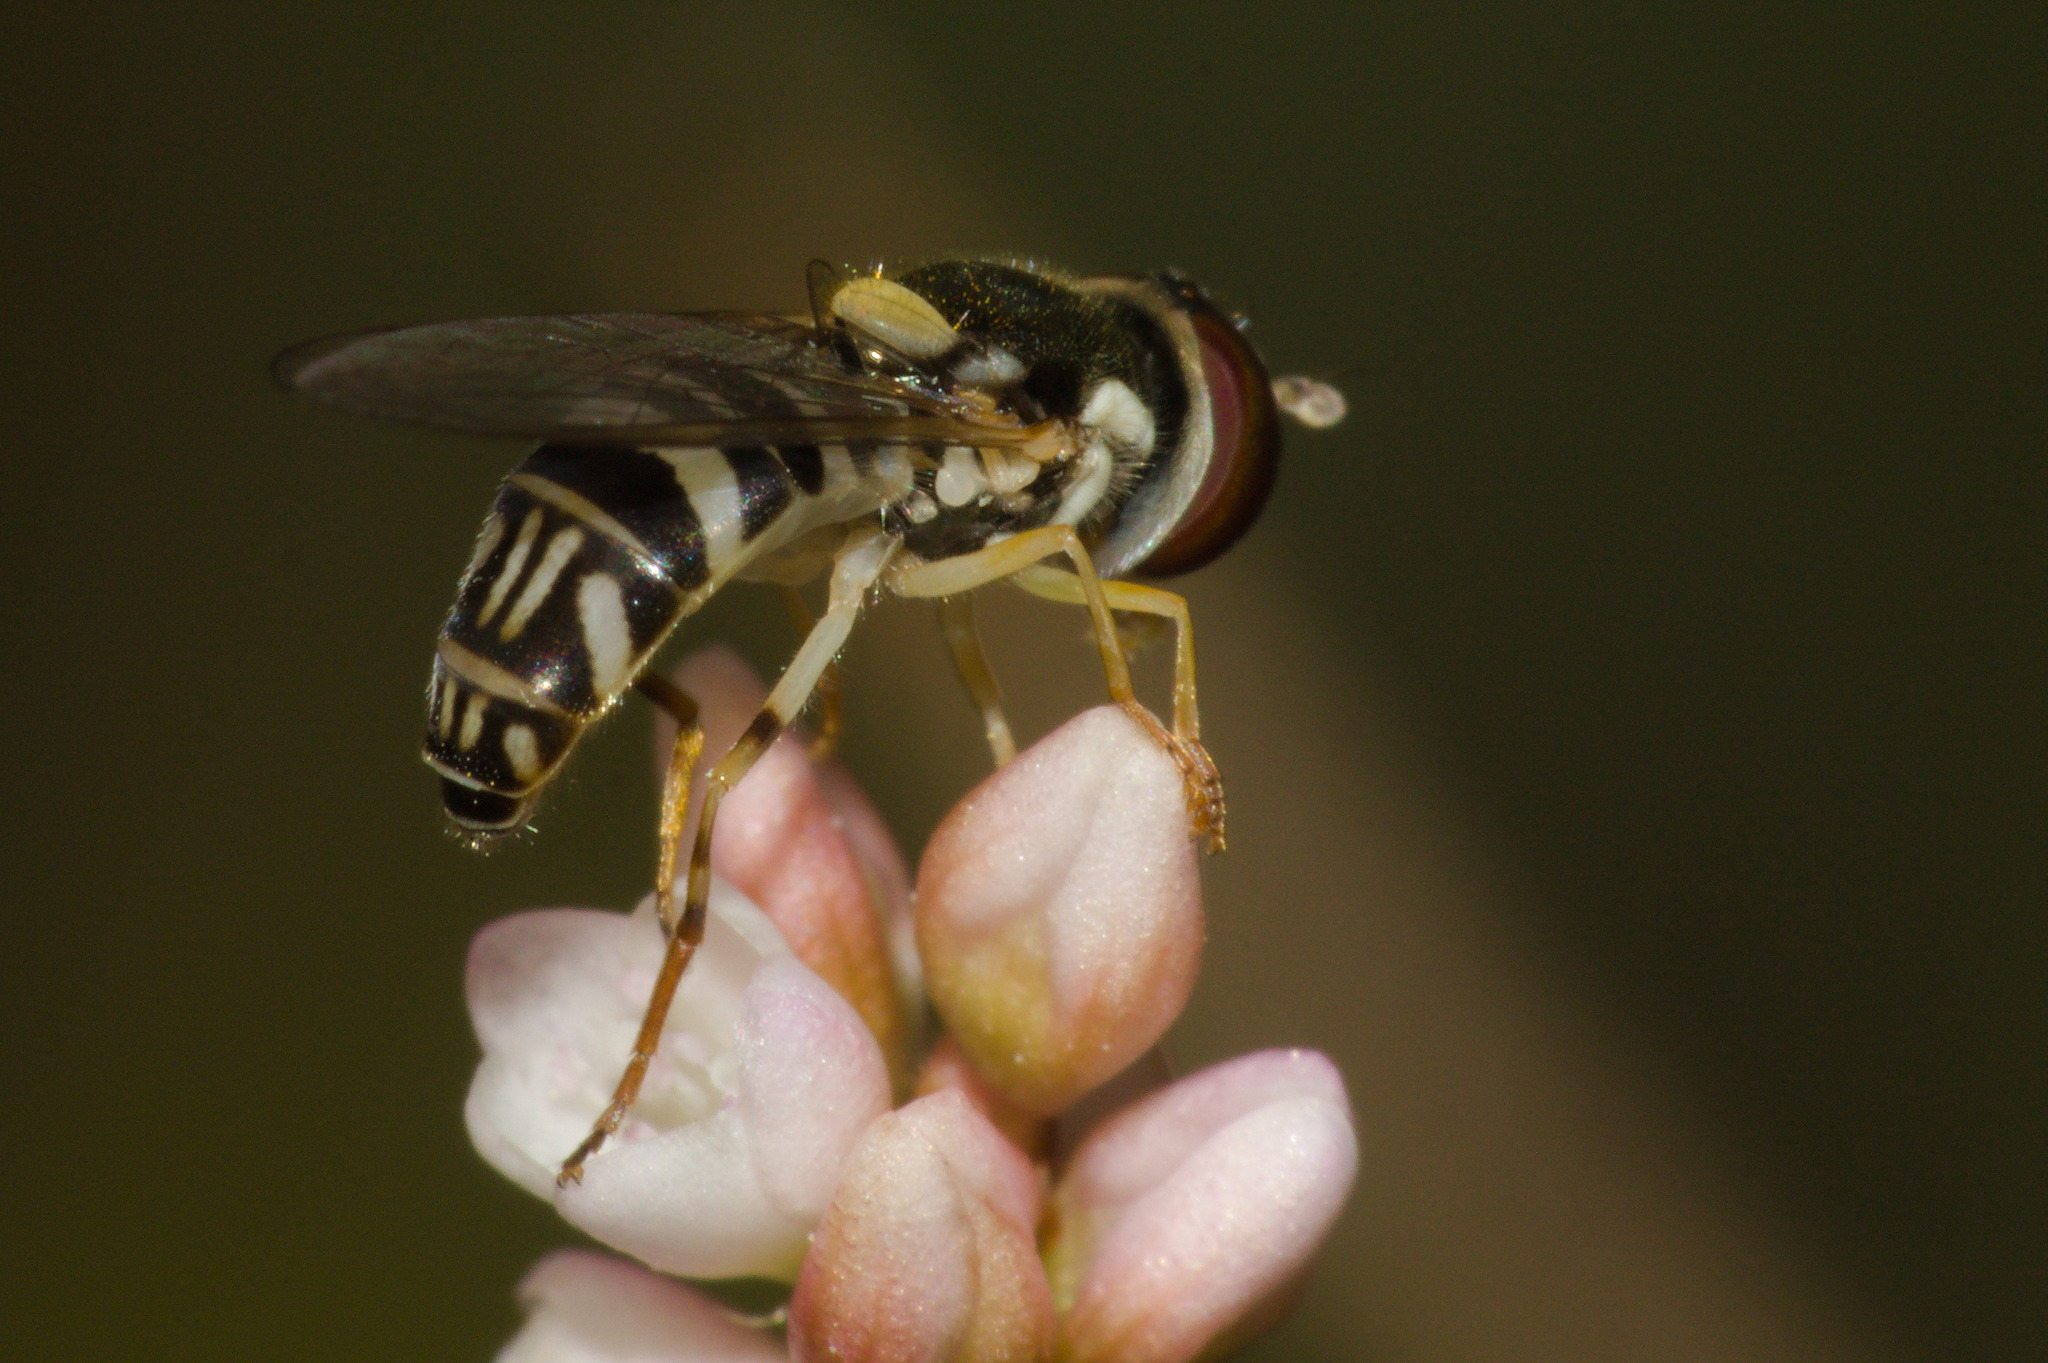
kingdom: Animalia
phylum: Arthropoda
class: Insecta
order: Diptera
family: Syrphidae
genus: Allograpta
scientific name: Allograpta exotica
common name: Syrphid fly
